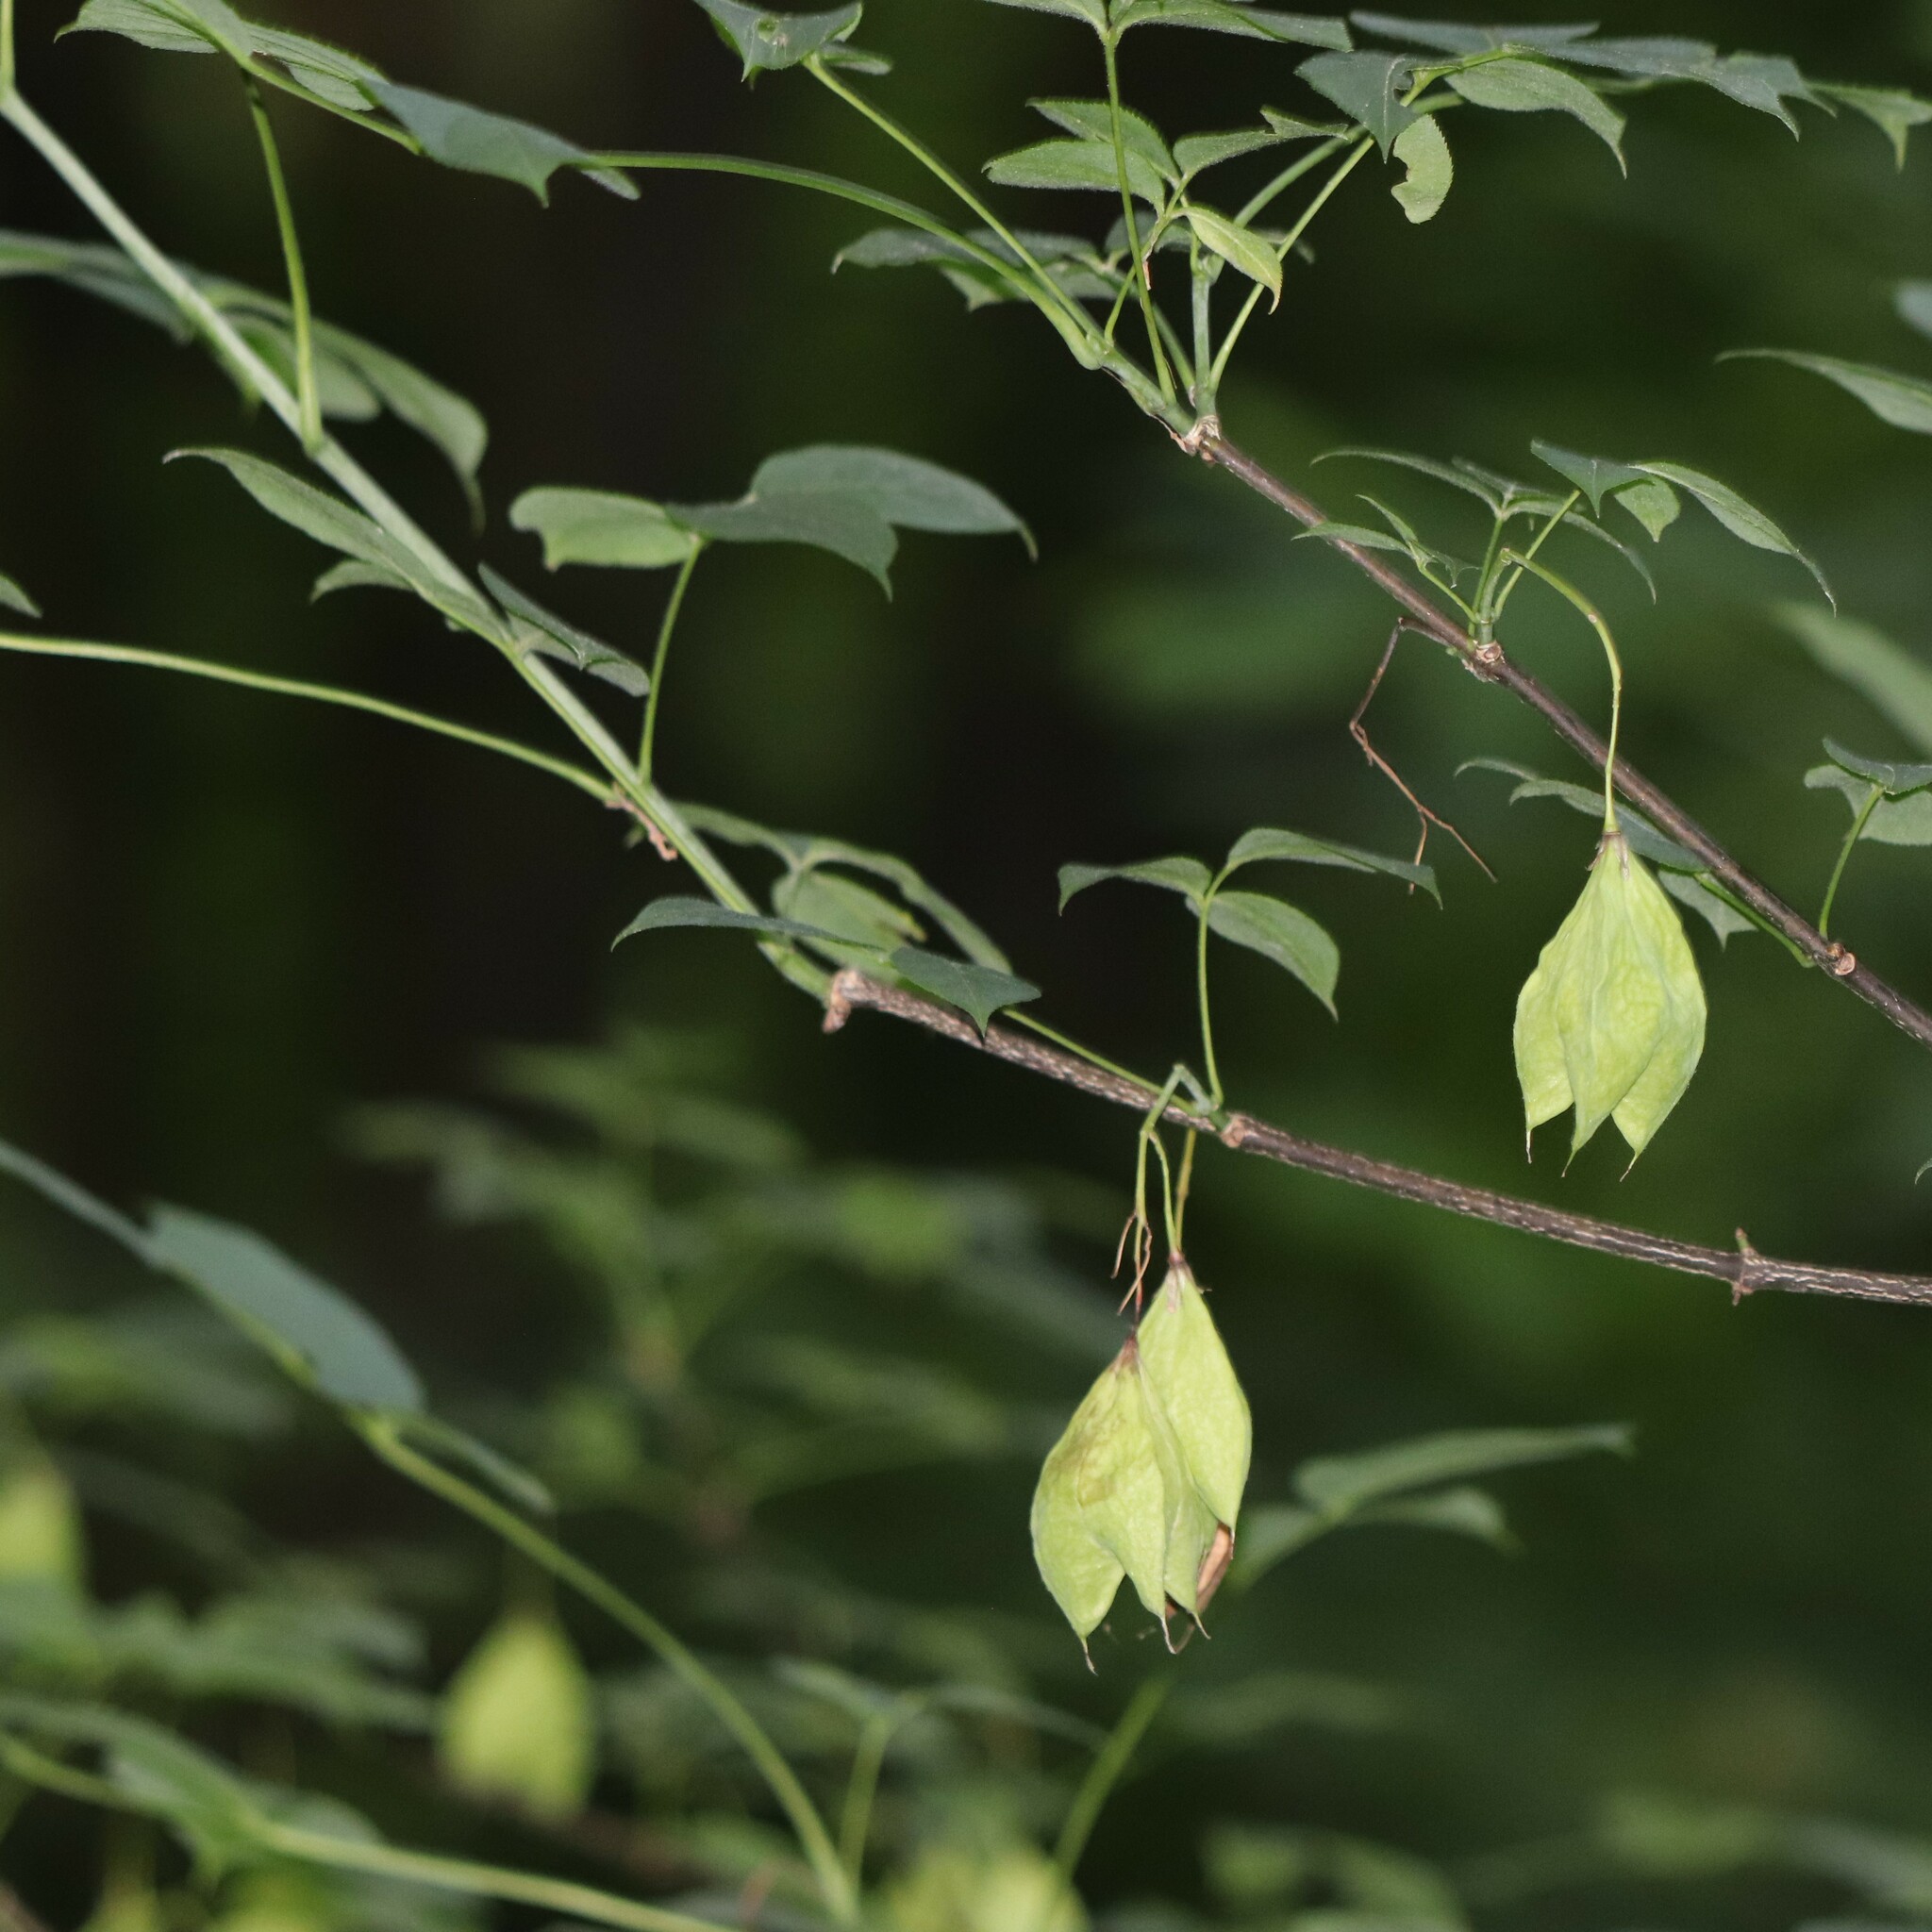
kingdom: Plantae
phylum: Tracheophyta
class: Magnoliopsida
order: Crossosomatales
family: Staphyleaceae
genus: Staphylea
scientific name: Staphylea trifolia
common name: American bladdernut
